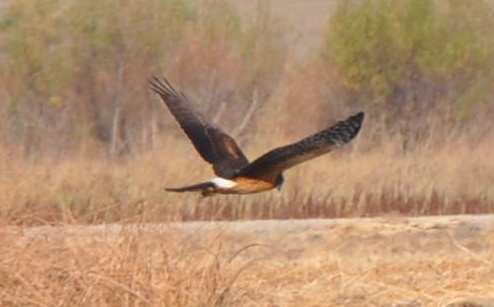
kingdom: Animalia
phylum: Chordata
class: Aves
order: Accipitriformes
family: Accipitridae
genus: Circus
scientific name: Circus cyaneus
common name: Hen harrier
